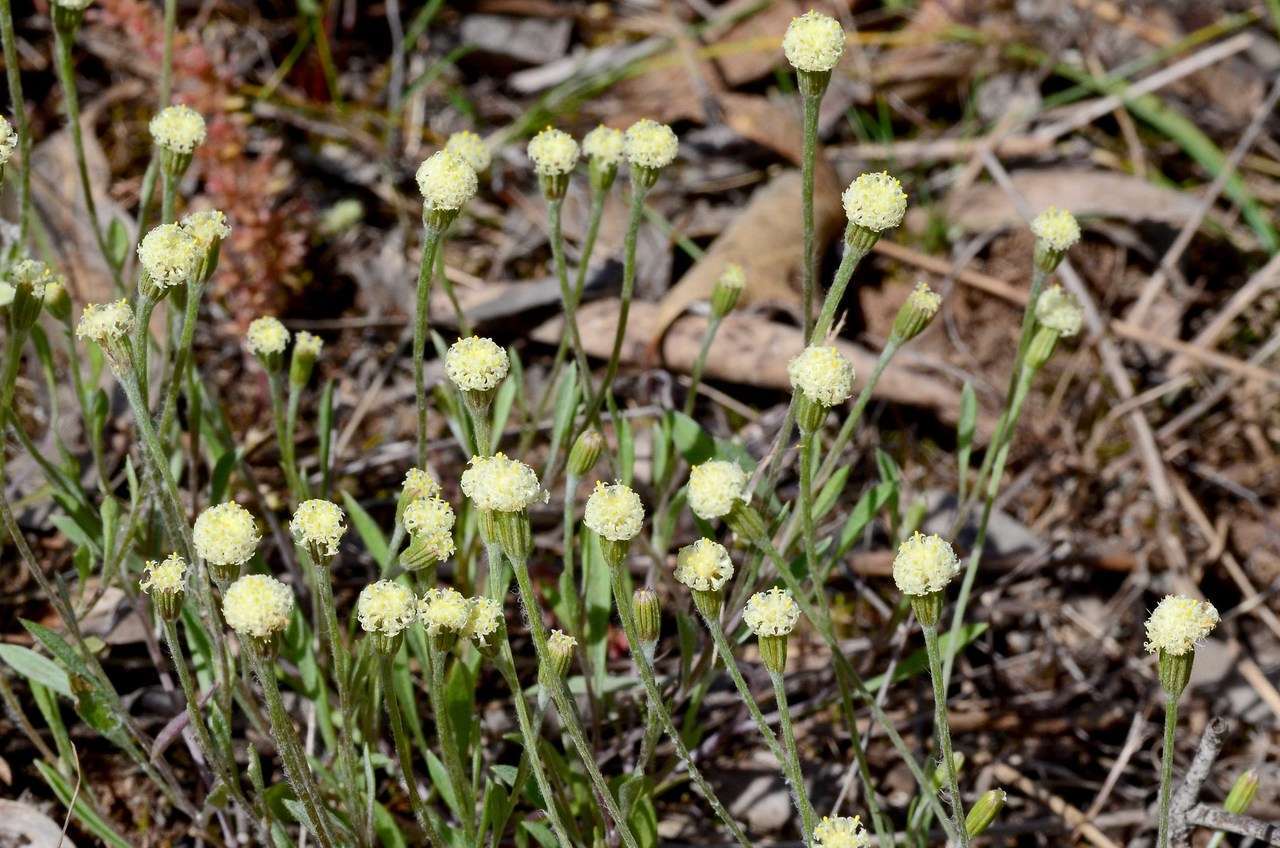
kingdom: Plantae
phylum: Tracheophyta
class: Magnoliopsida
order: Asterales
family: Asteraceae
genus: Millotia
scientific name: Millotia myosotidifolia
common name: Broad-leaved millotia
